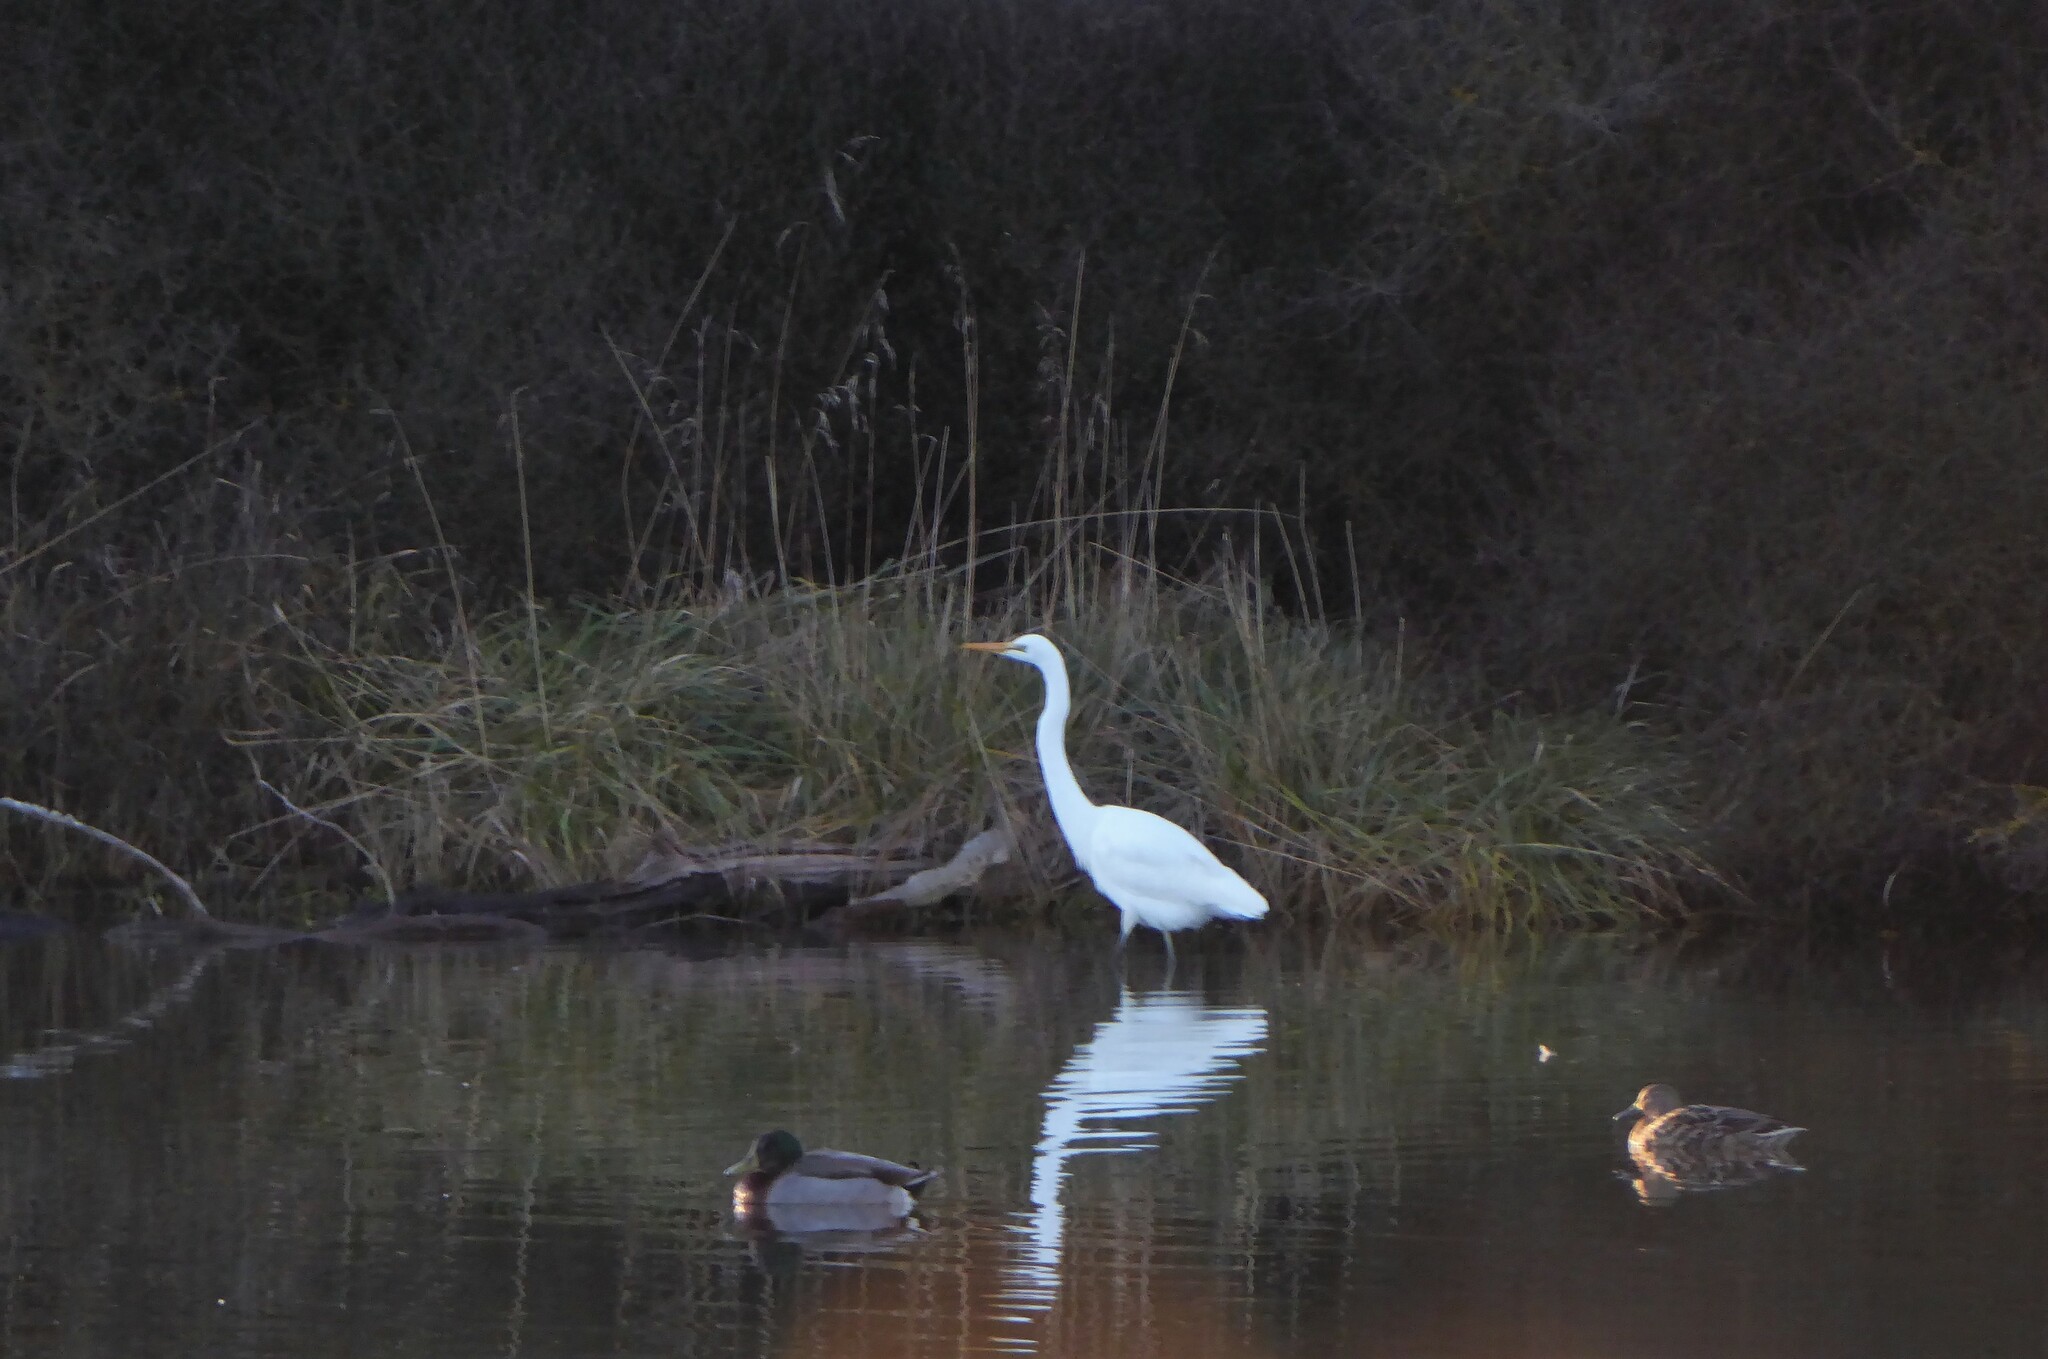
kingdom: Animalia
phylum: Chordata
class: Aves
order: Pelecaniformes
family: Ardeidae
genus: Ardea
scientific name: Ardea modesta
